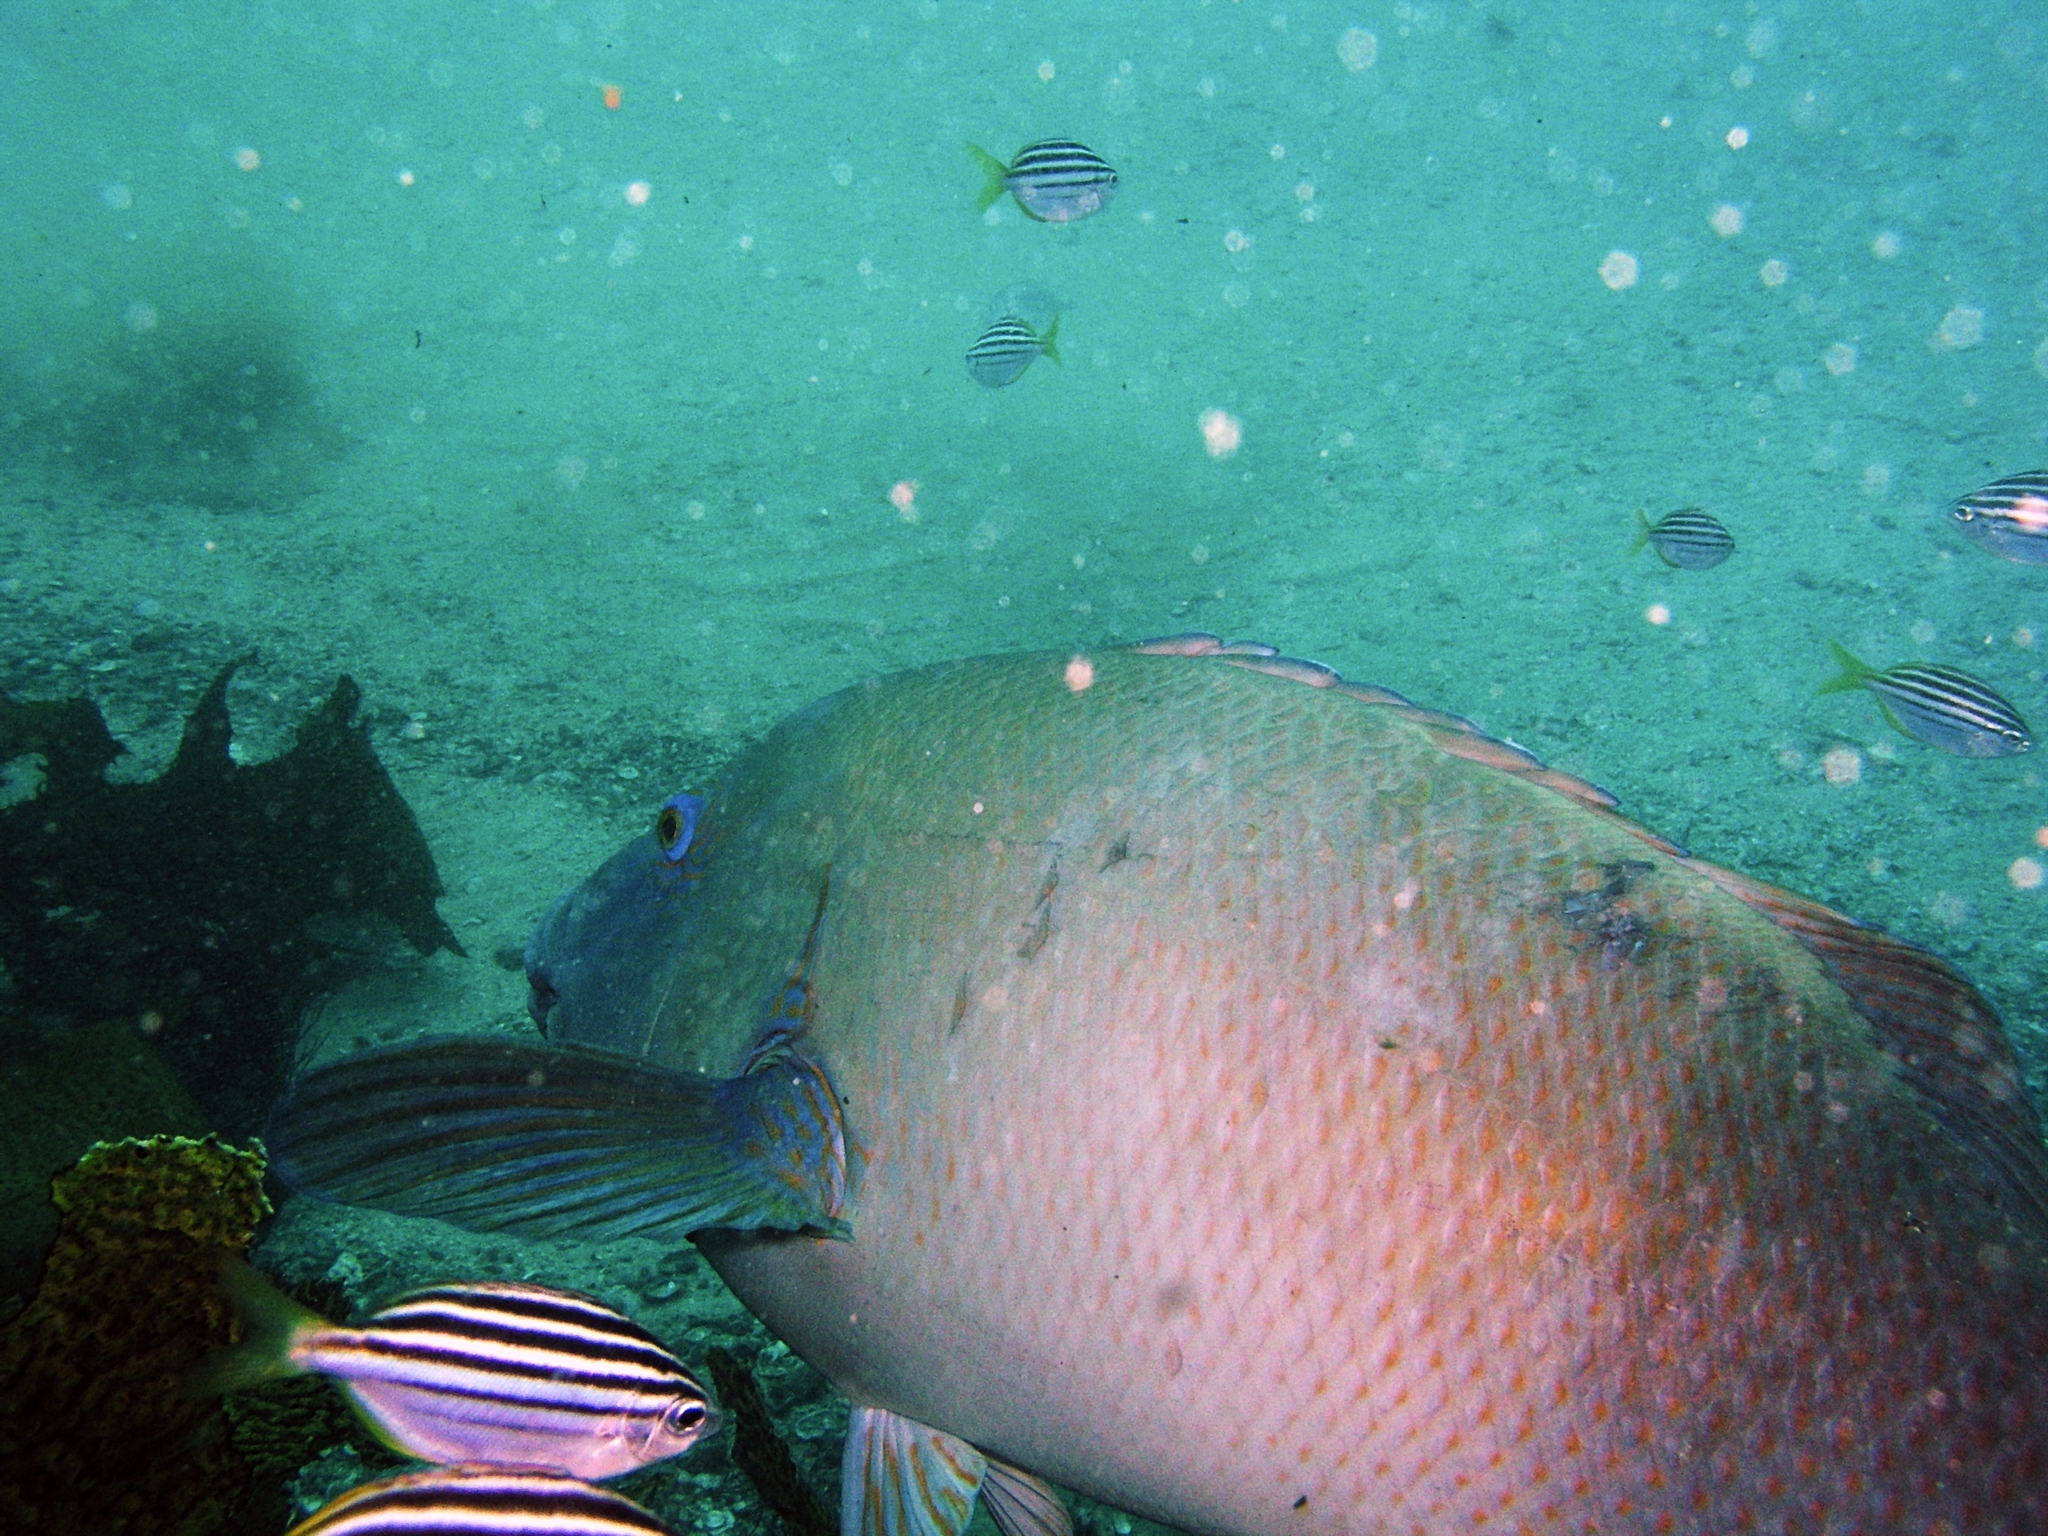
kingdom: Animalia
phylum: Chordata
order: Perciformes
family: Labridae
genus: Achoerodus
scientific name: Achoerodus viridis
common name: Brown groper
